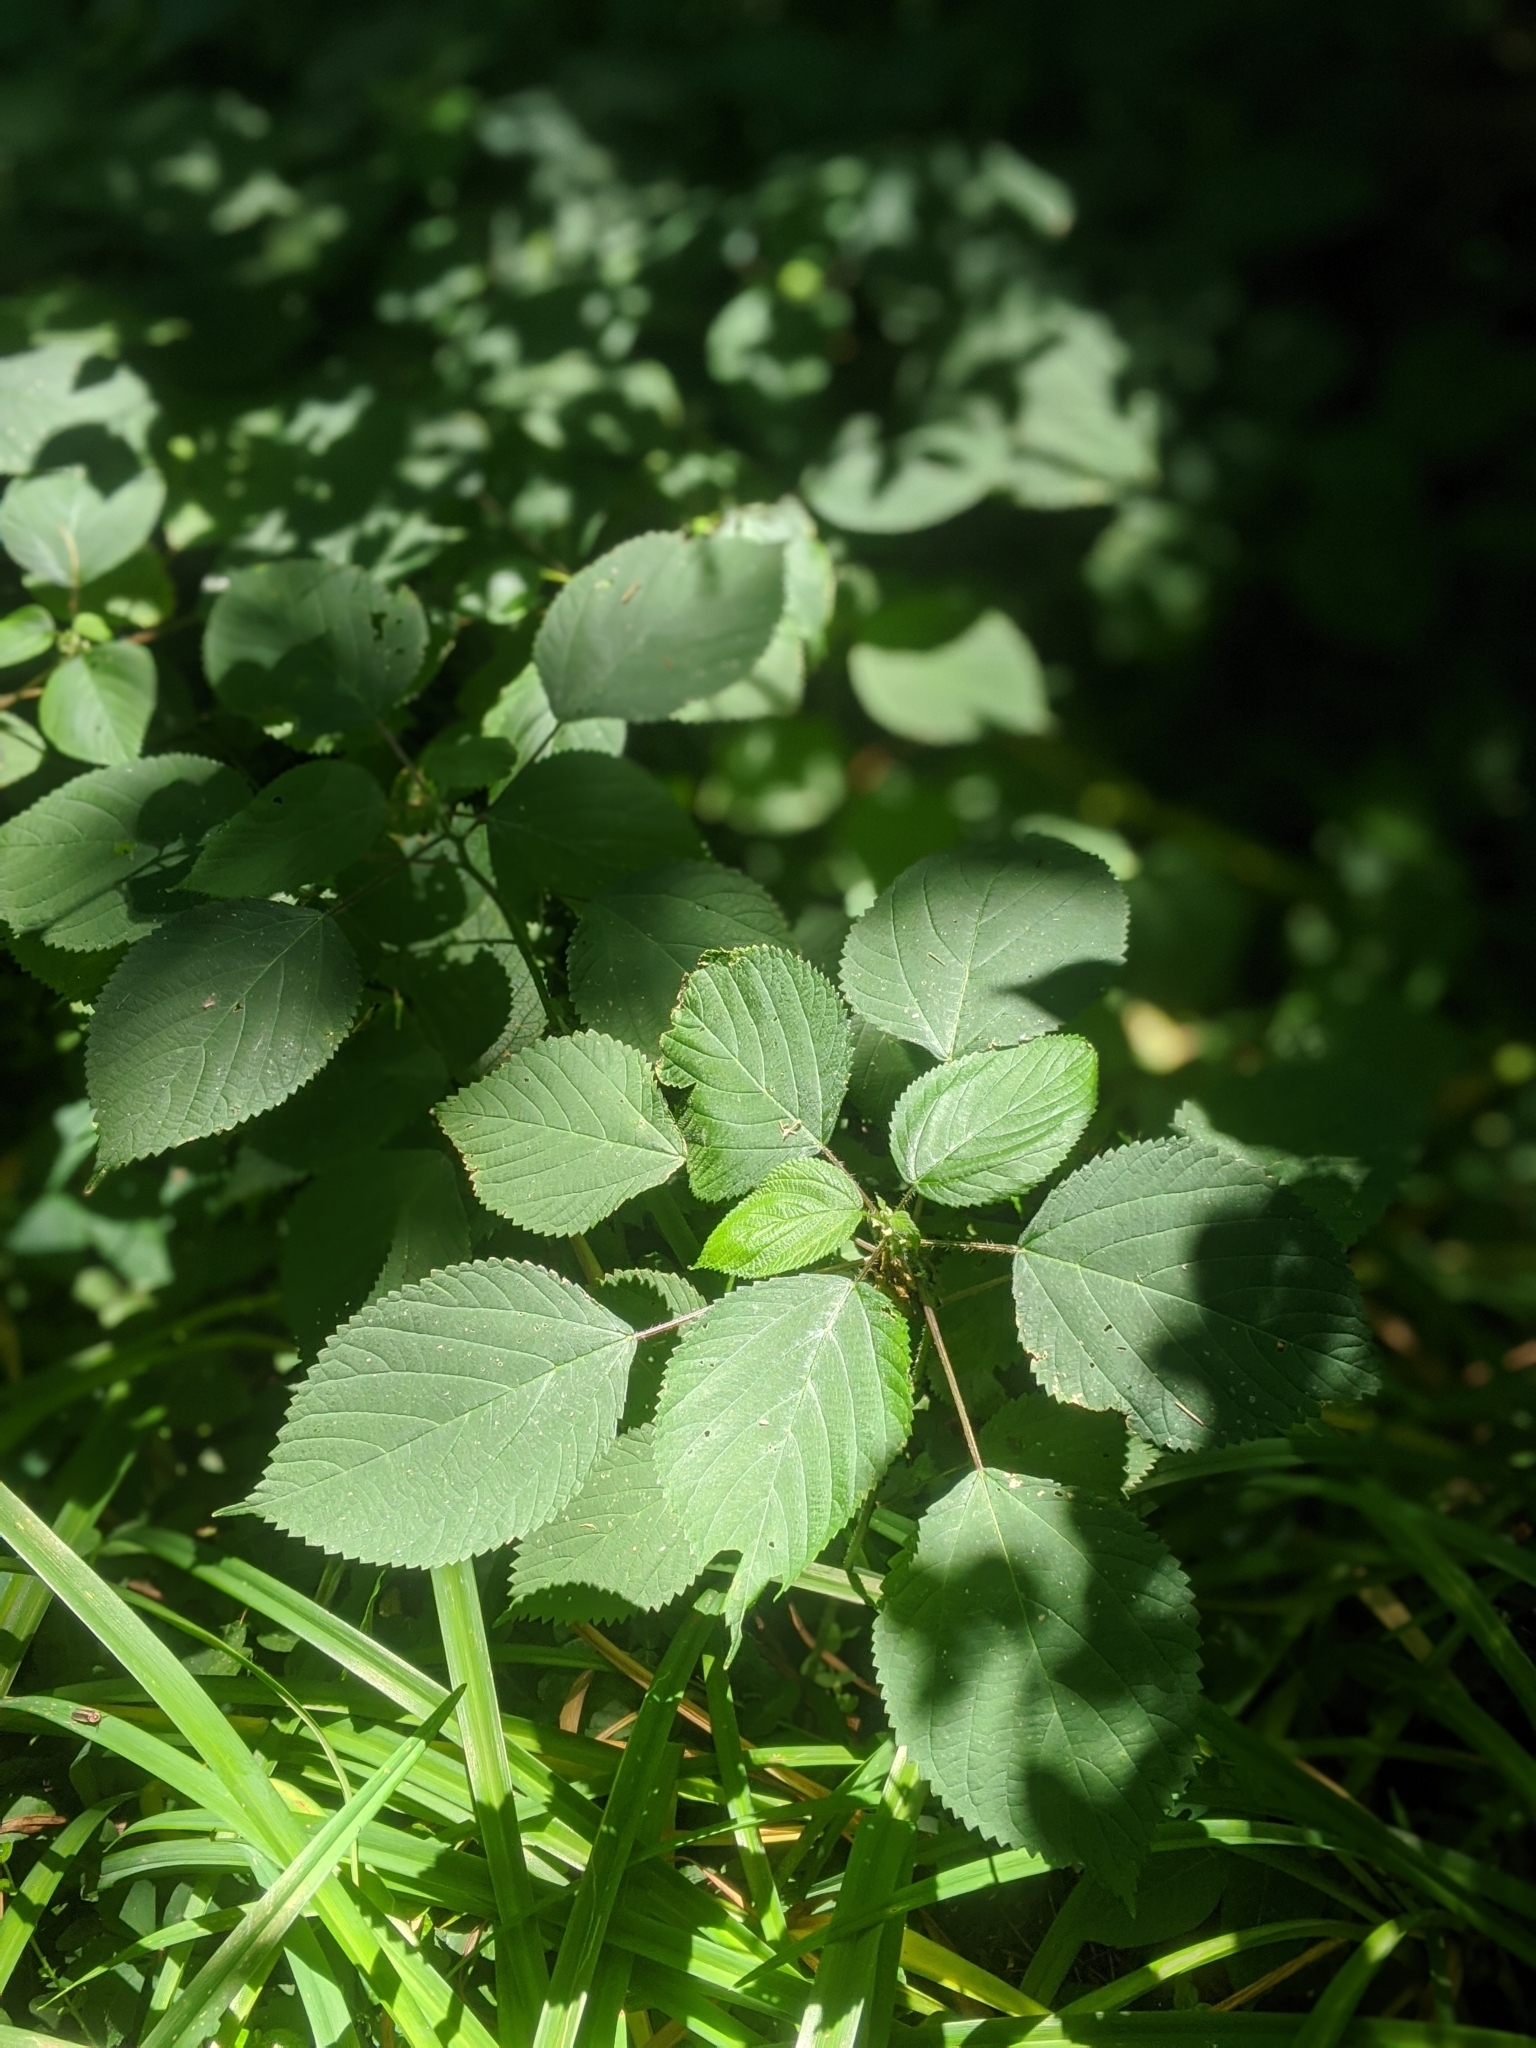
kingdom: Plantae
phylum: Tracheophyta
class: Magnoliopsida
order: Rosales
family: Urticaceae
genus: Laportea
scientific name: Laportea canadensis
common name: Canada nettle
